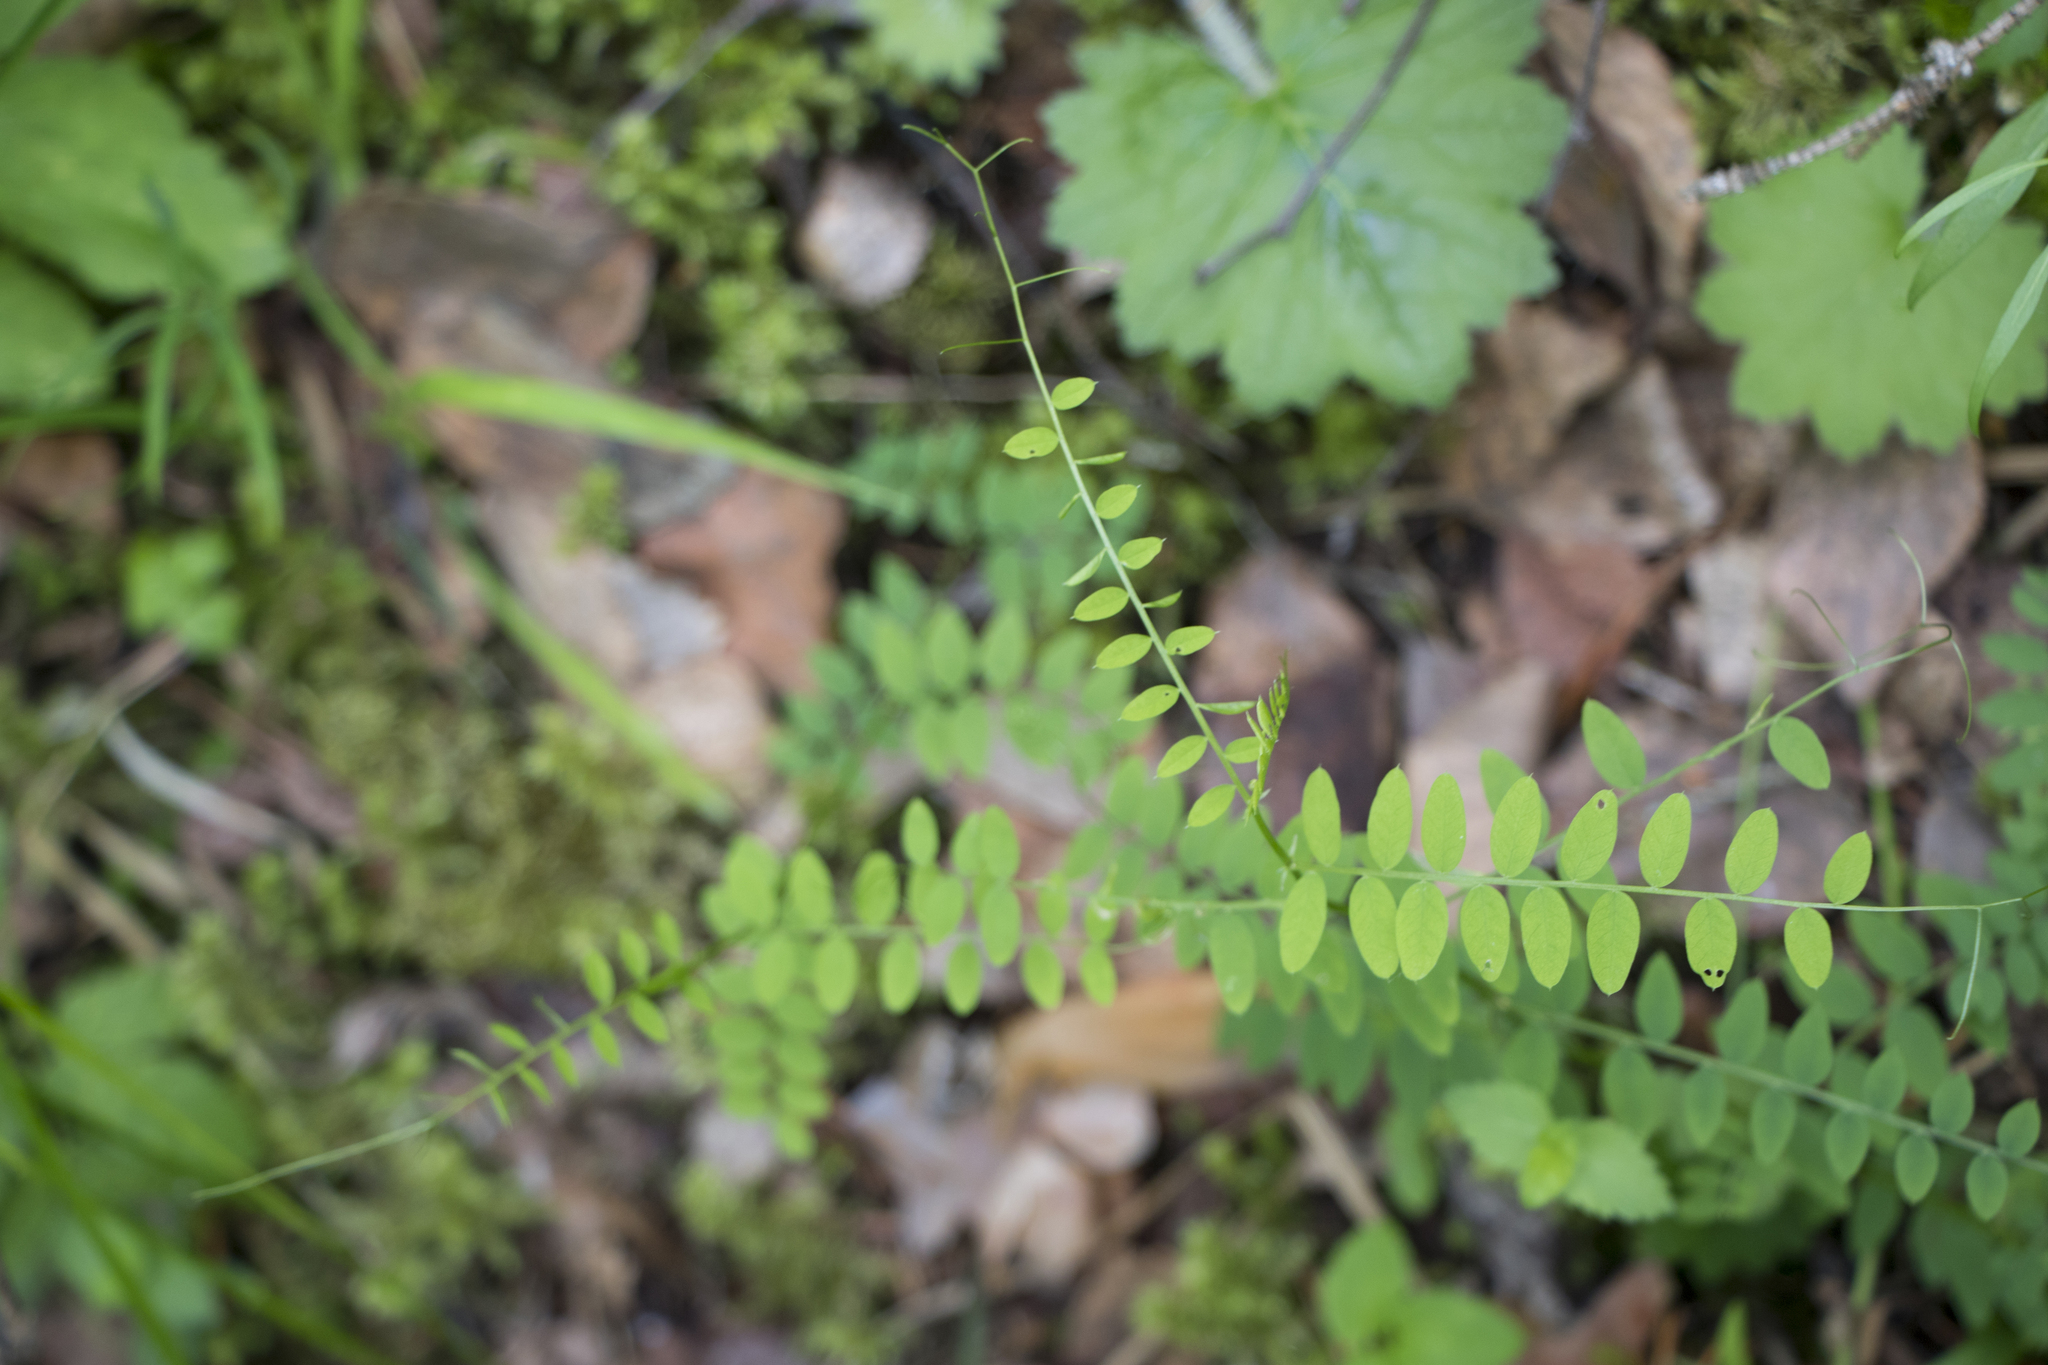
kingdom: Plantae
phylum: Tracheophyta
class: Magnoliopsida
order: Fabales
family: Fabaceae
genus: Vicia
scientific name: Vicia sylvatica
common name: Wood vetch
